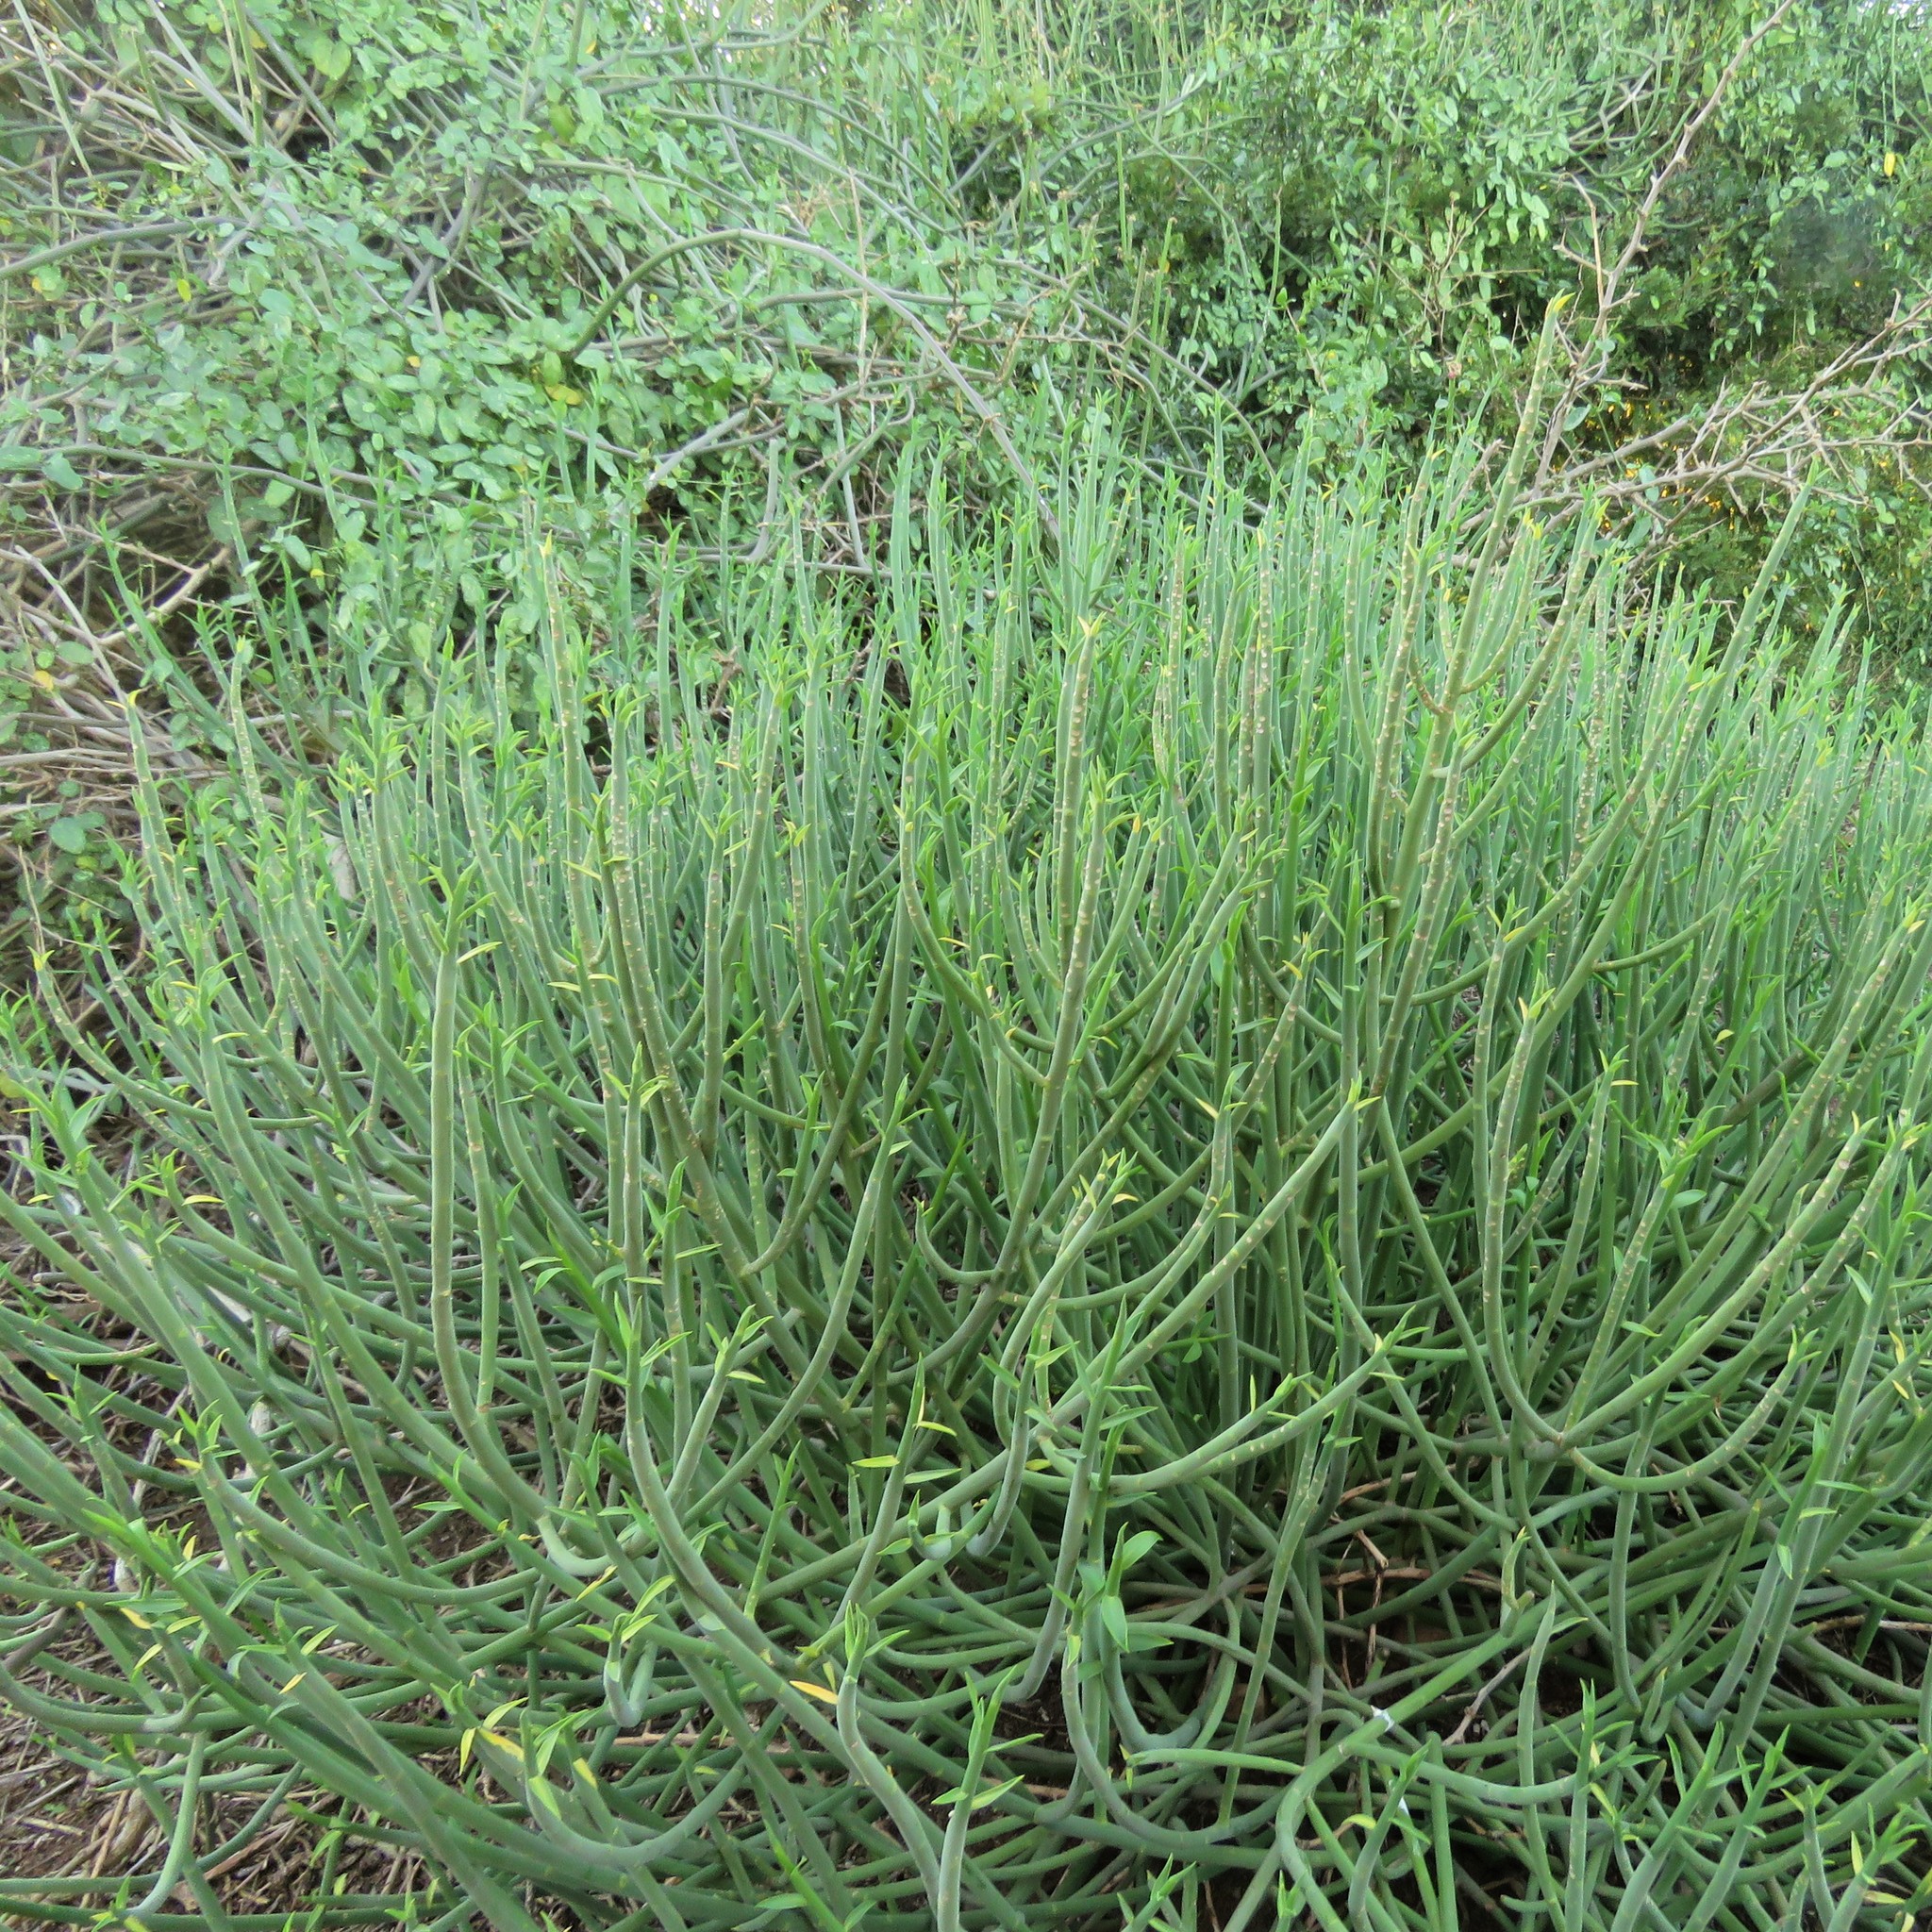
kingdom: Plantae
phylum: Tracheophyta
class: Magnoliopsida
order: Malpighiales
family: Euphorbiaceae
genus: Euphorbia
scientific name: Euphorbia mauritanica
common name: Jackal's-food
